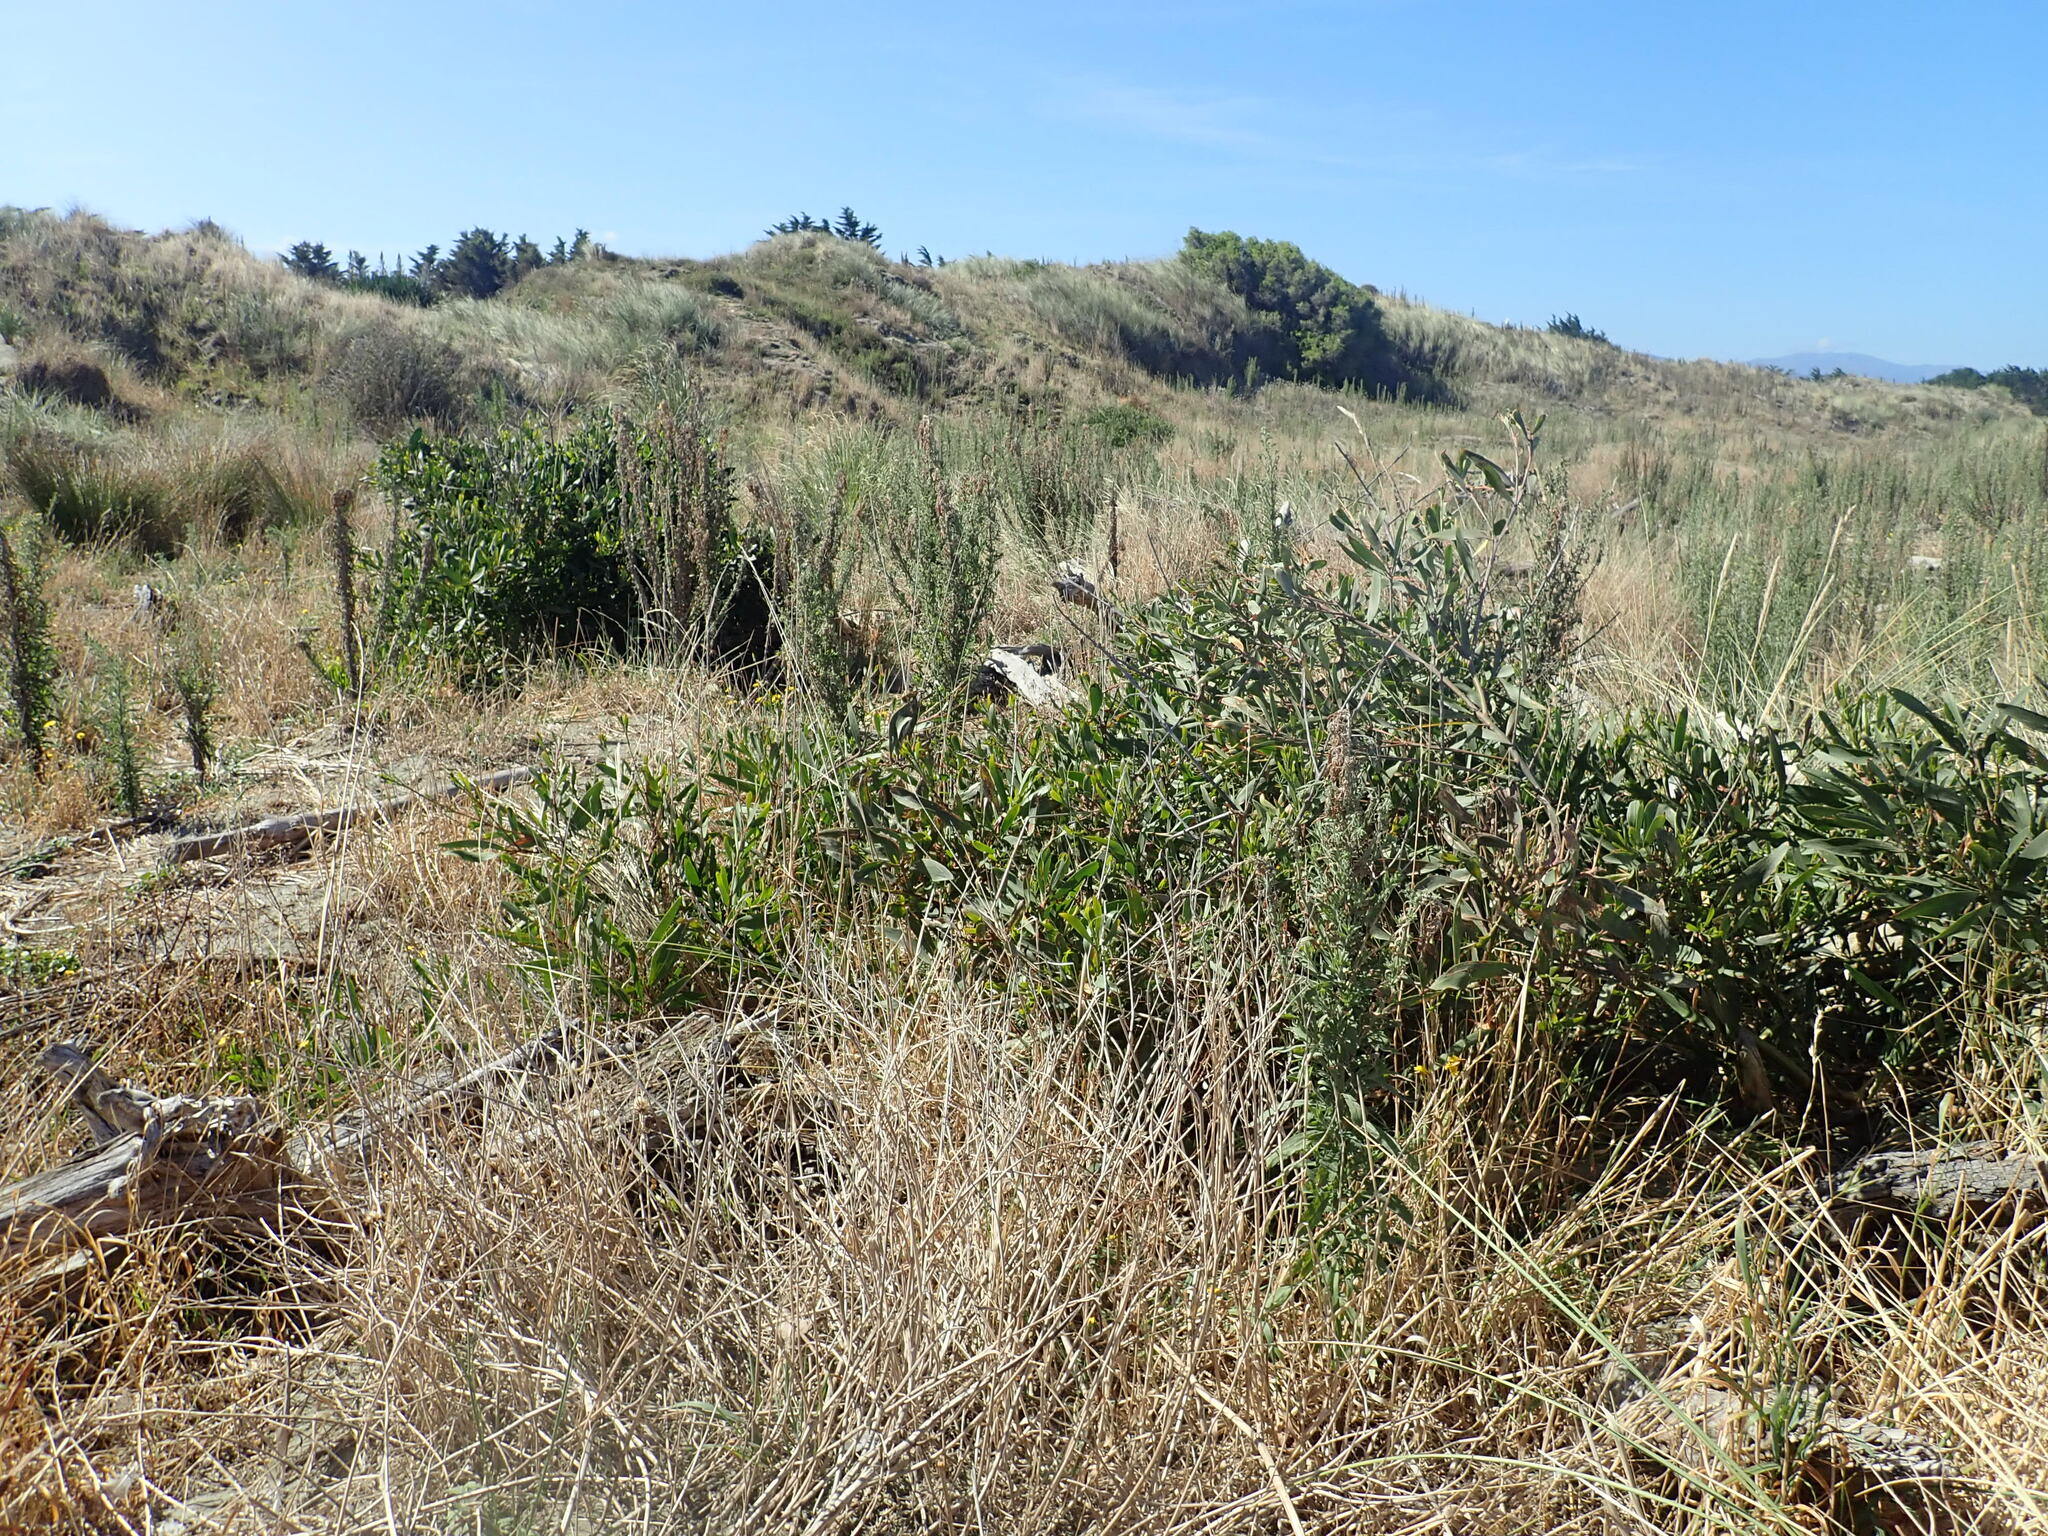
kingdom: Plantae
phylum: Tracheophyta
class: Magnoliopsida
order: Fabales
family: Fabaceae
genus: Acacia
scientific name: Acacia longifolia
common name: Sydney golden wattle
